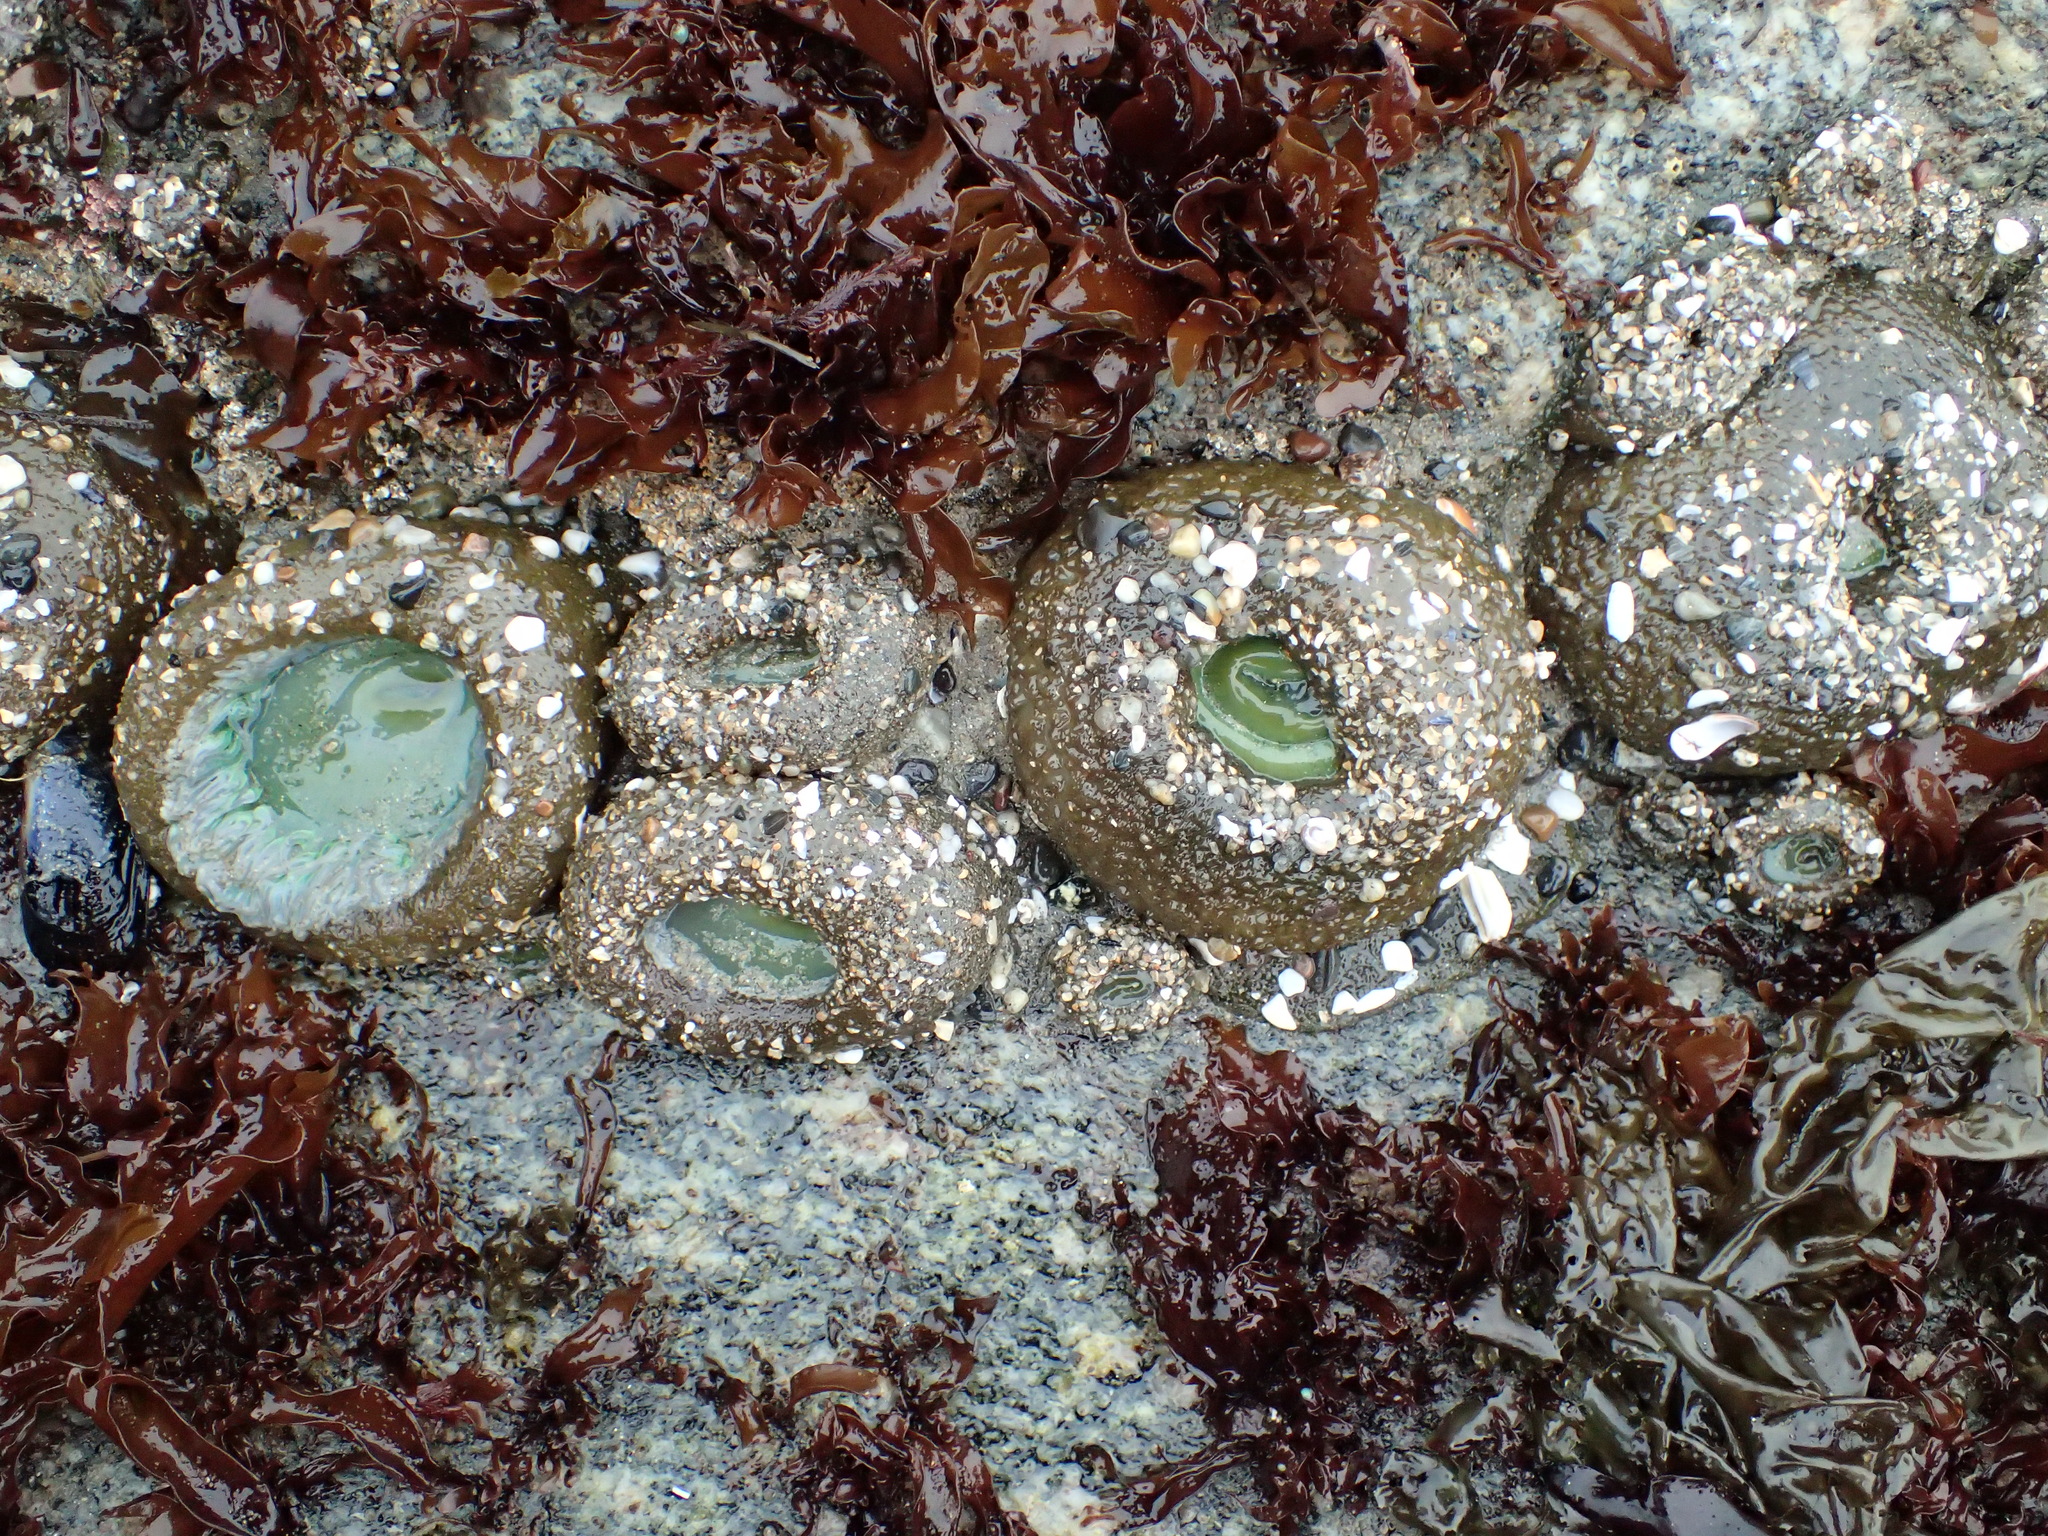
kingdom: Animalia
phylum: Cnidaria
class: Anthozoa
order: Actiniaria
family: Actiniidae
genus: Anthopleura
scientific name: Anthopleura xanthogrammica
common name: Giant green anemone
